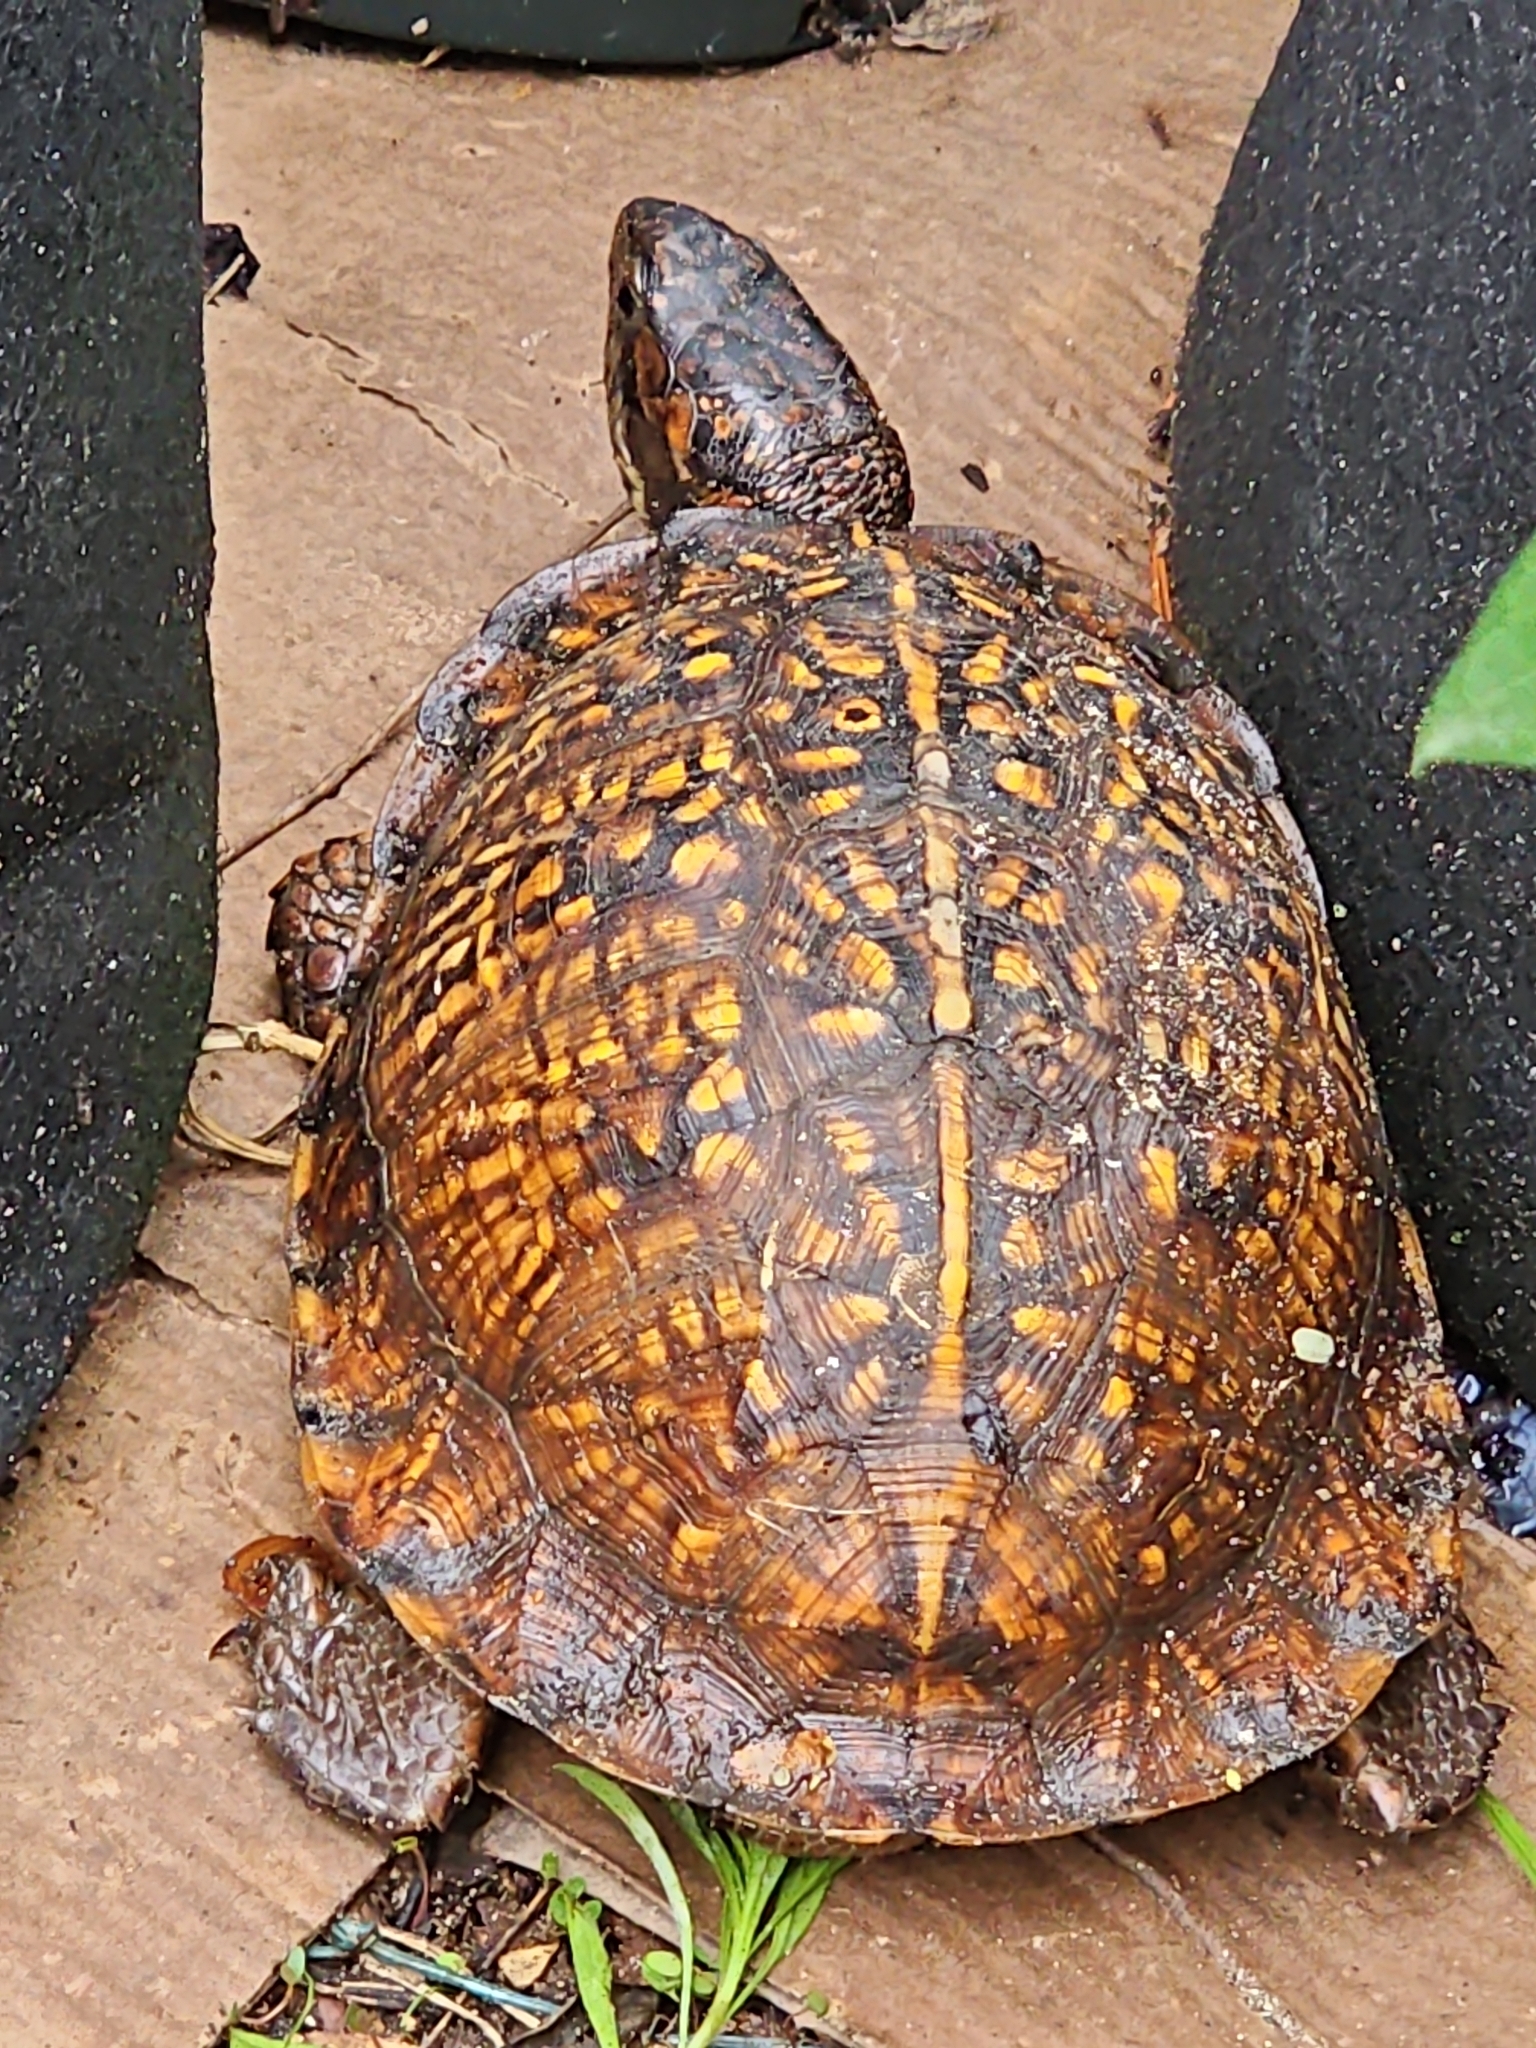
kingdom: Animalia
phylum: Chordata
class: Testudines
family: Emydidae
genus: Terrapene
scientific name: Terrapene carolina
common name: Common box turtle
